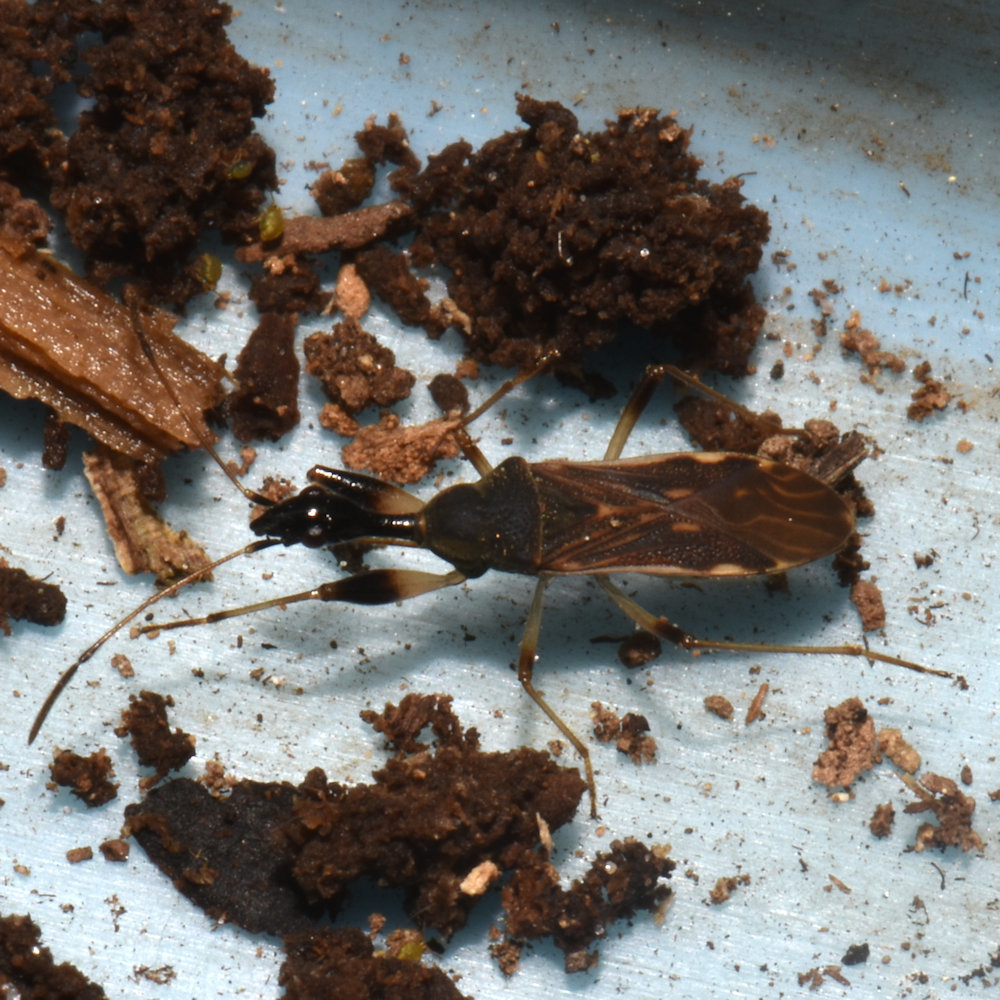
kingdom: Animalia
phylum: Arthropoda
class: Insecta
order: Hemiptera
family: Rhyparochromidae
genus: Myodocha
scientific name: Myodocha serripes
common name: Long-necked seed bug
